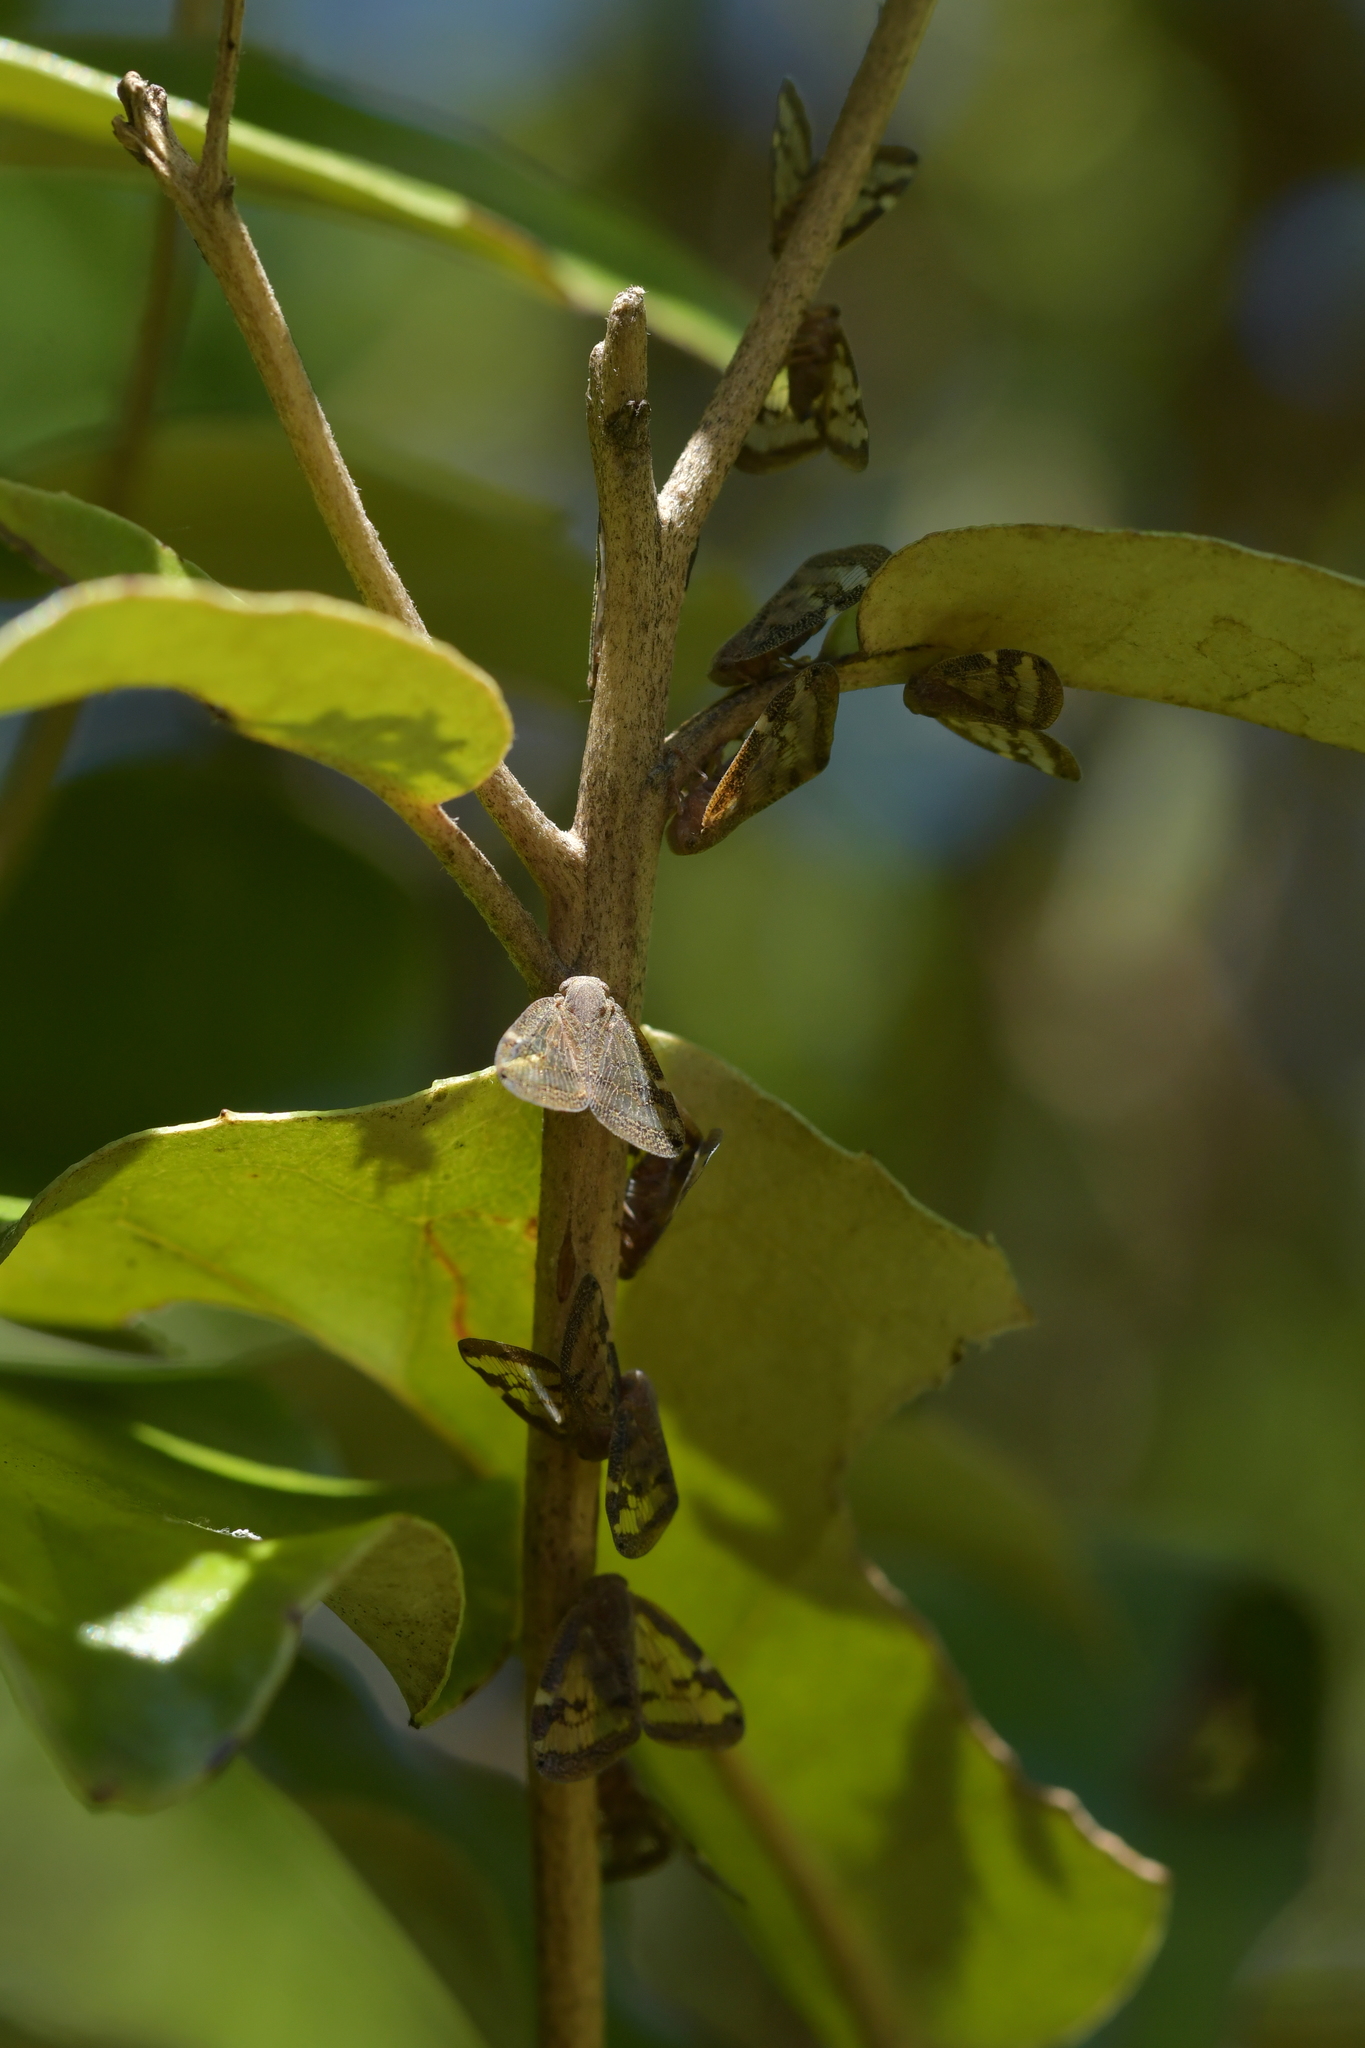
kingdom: Animalia
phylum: Arthropoda
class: Insecta
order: Hemiptera
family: Ricaniidae
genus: Scolypopa
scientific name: Scolypopa australis
